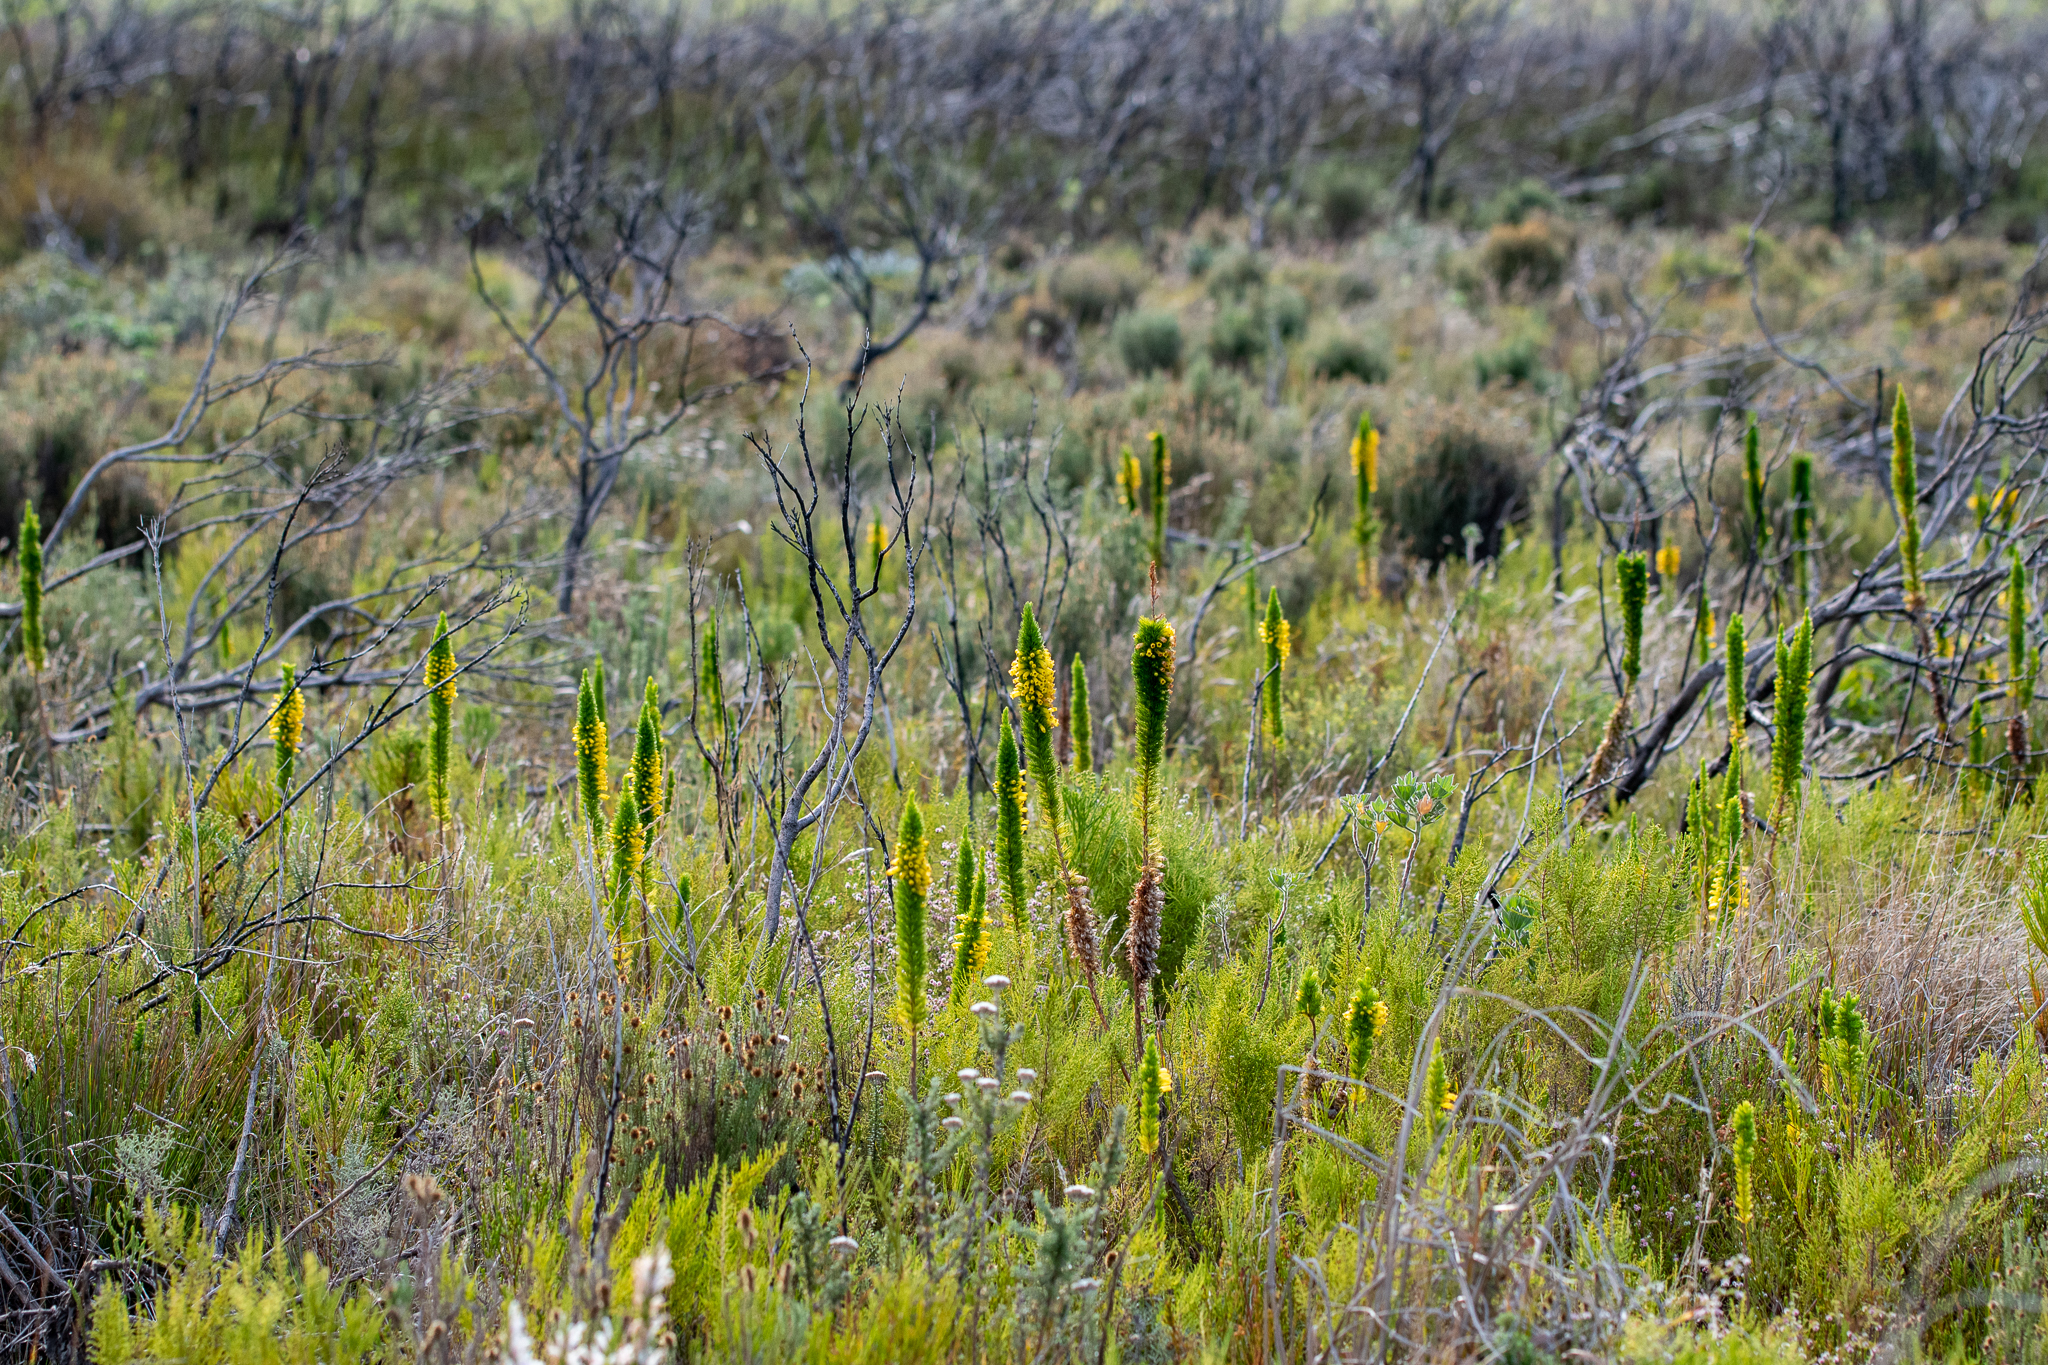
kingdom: Plantae
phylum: Tracheophyta
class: Magnoliopsida
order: Ericales
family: Ericaceae
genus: Erica
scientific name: Erica patersonia
